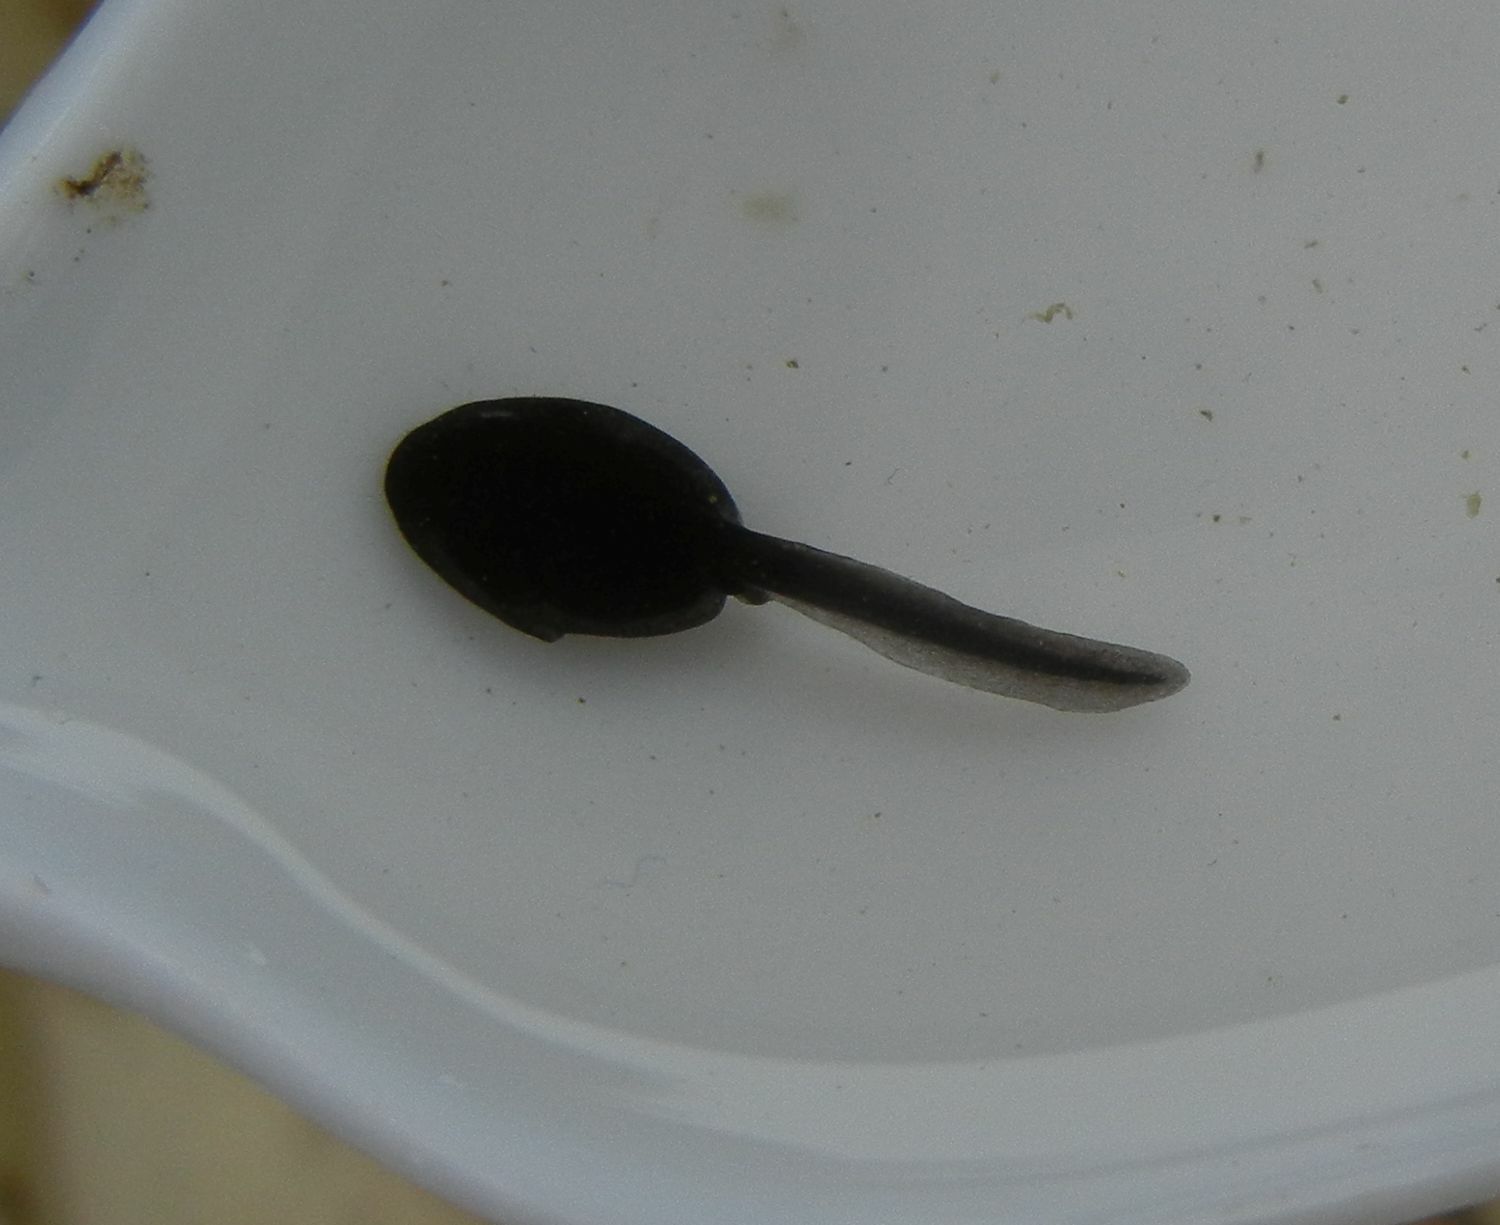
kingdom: Animalia
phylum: Chordata
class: Amphibia
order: Anura
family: Bufonidae
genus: Bufo
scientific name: Bufo bufo
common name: Common toad
